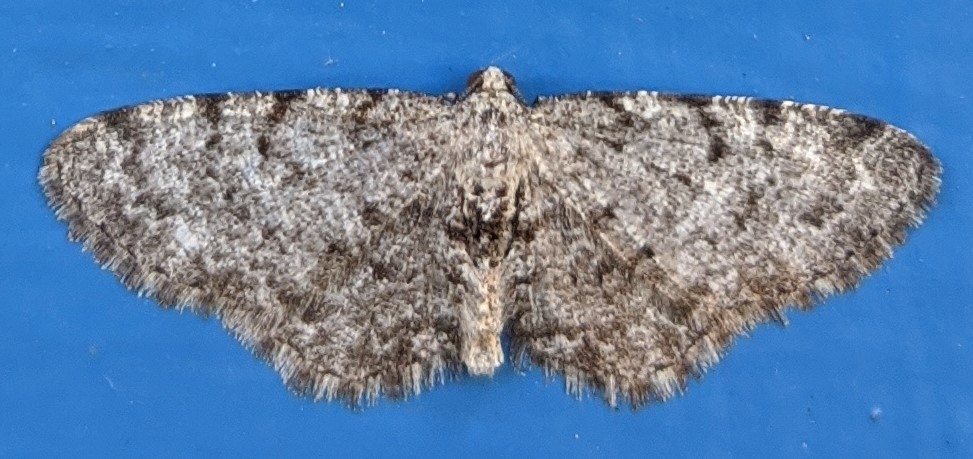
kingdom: Animalia
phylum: Arthropoda
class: Insecta
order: Lepidoptera
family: Geometridae
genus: Aethalura
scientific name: Aethalura intertexta
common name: Four-barred gray
